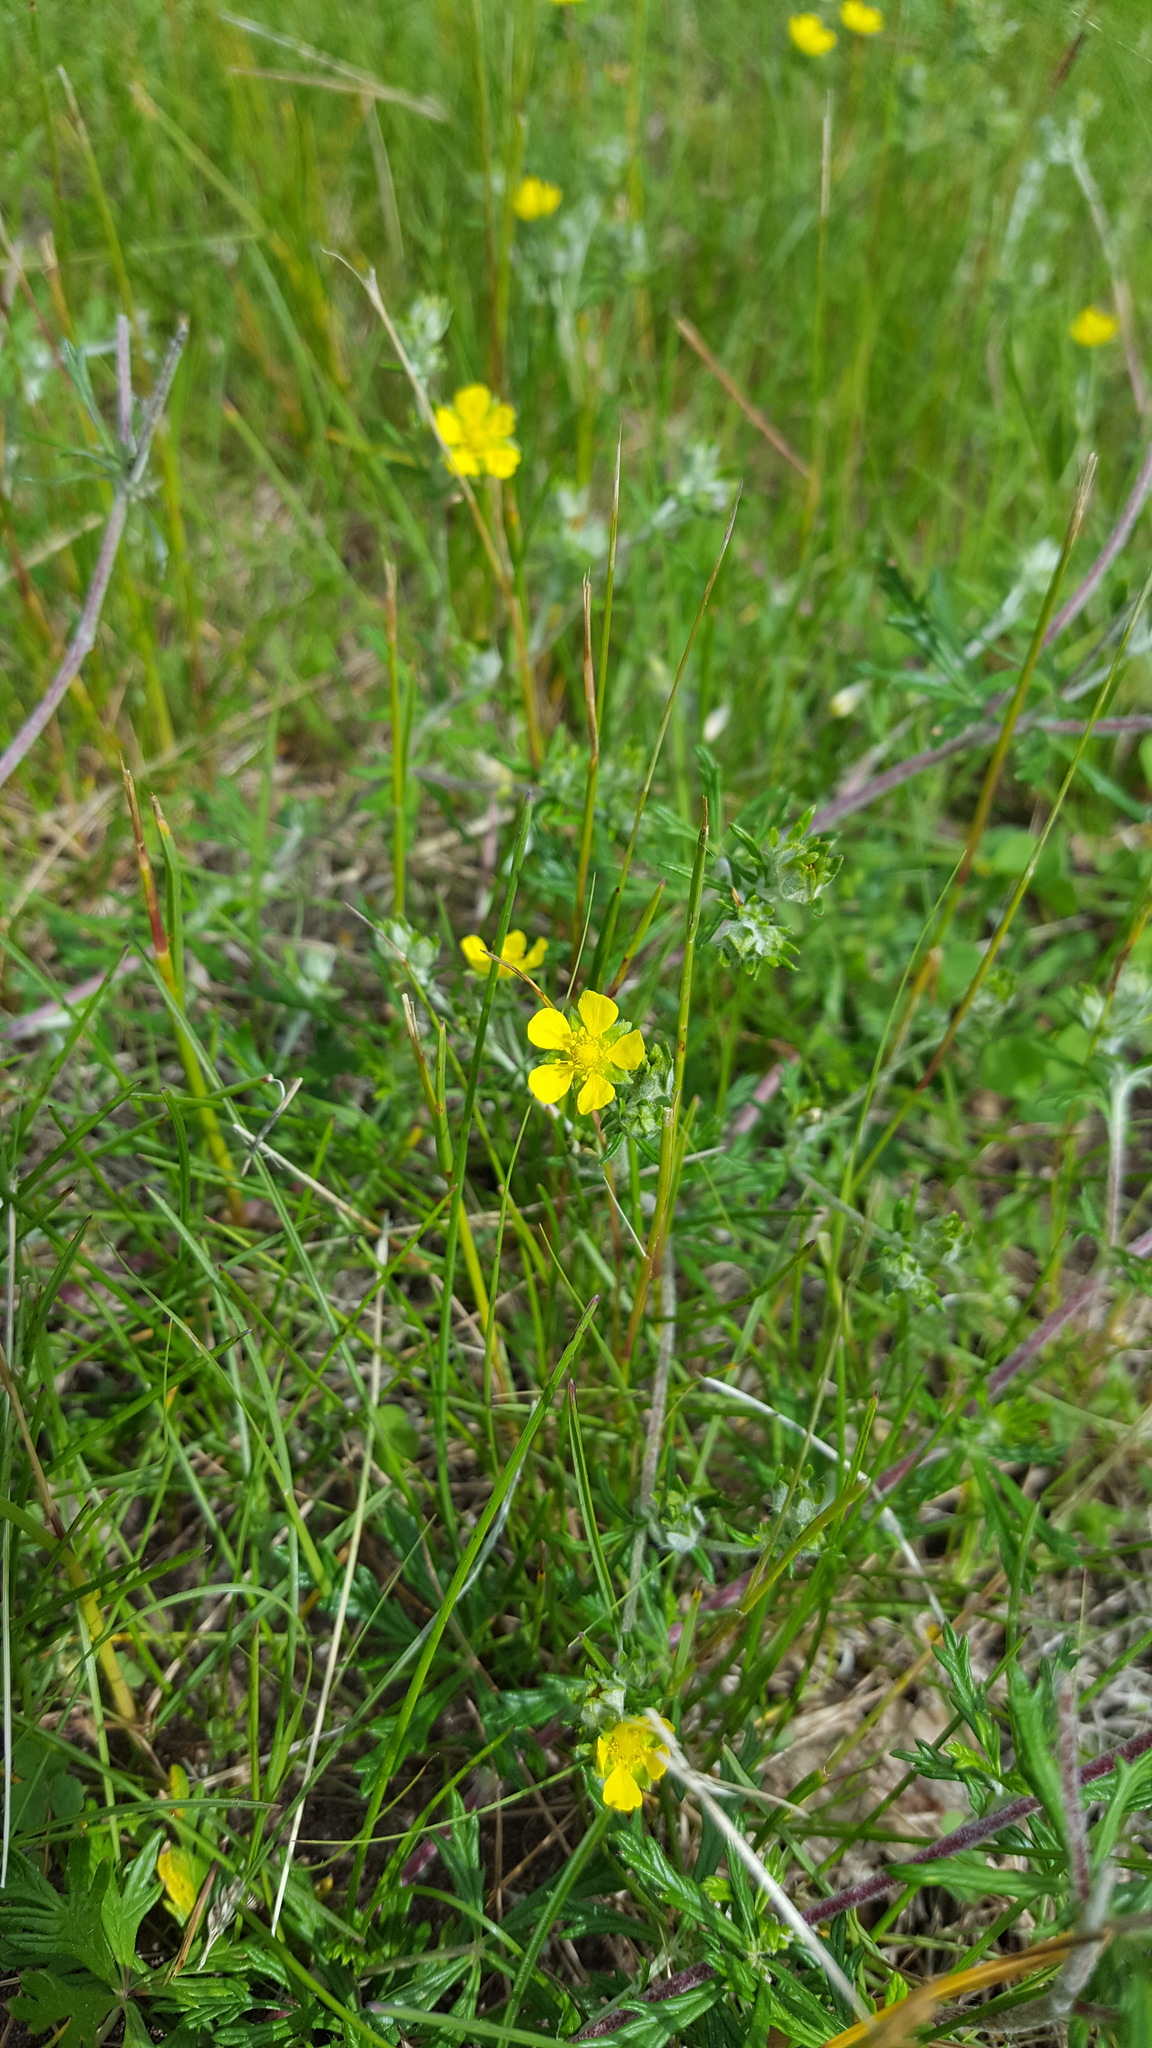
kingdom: Plantae
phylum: Tracheophyta
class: Magnoliopsida
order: Rosales
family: Rosaceae
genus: Potentilla
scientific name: Potentilla argentea
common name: Hoary cinquefoil
